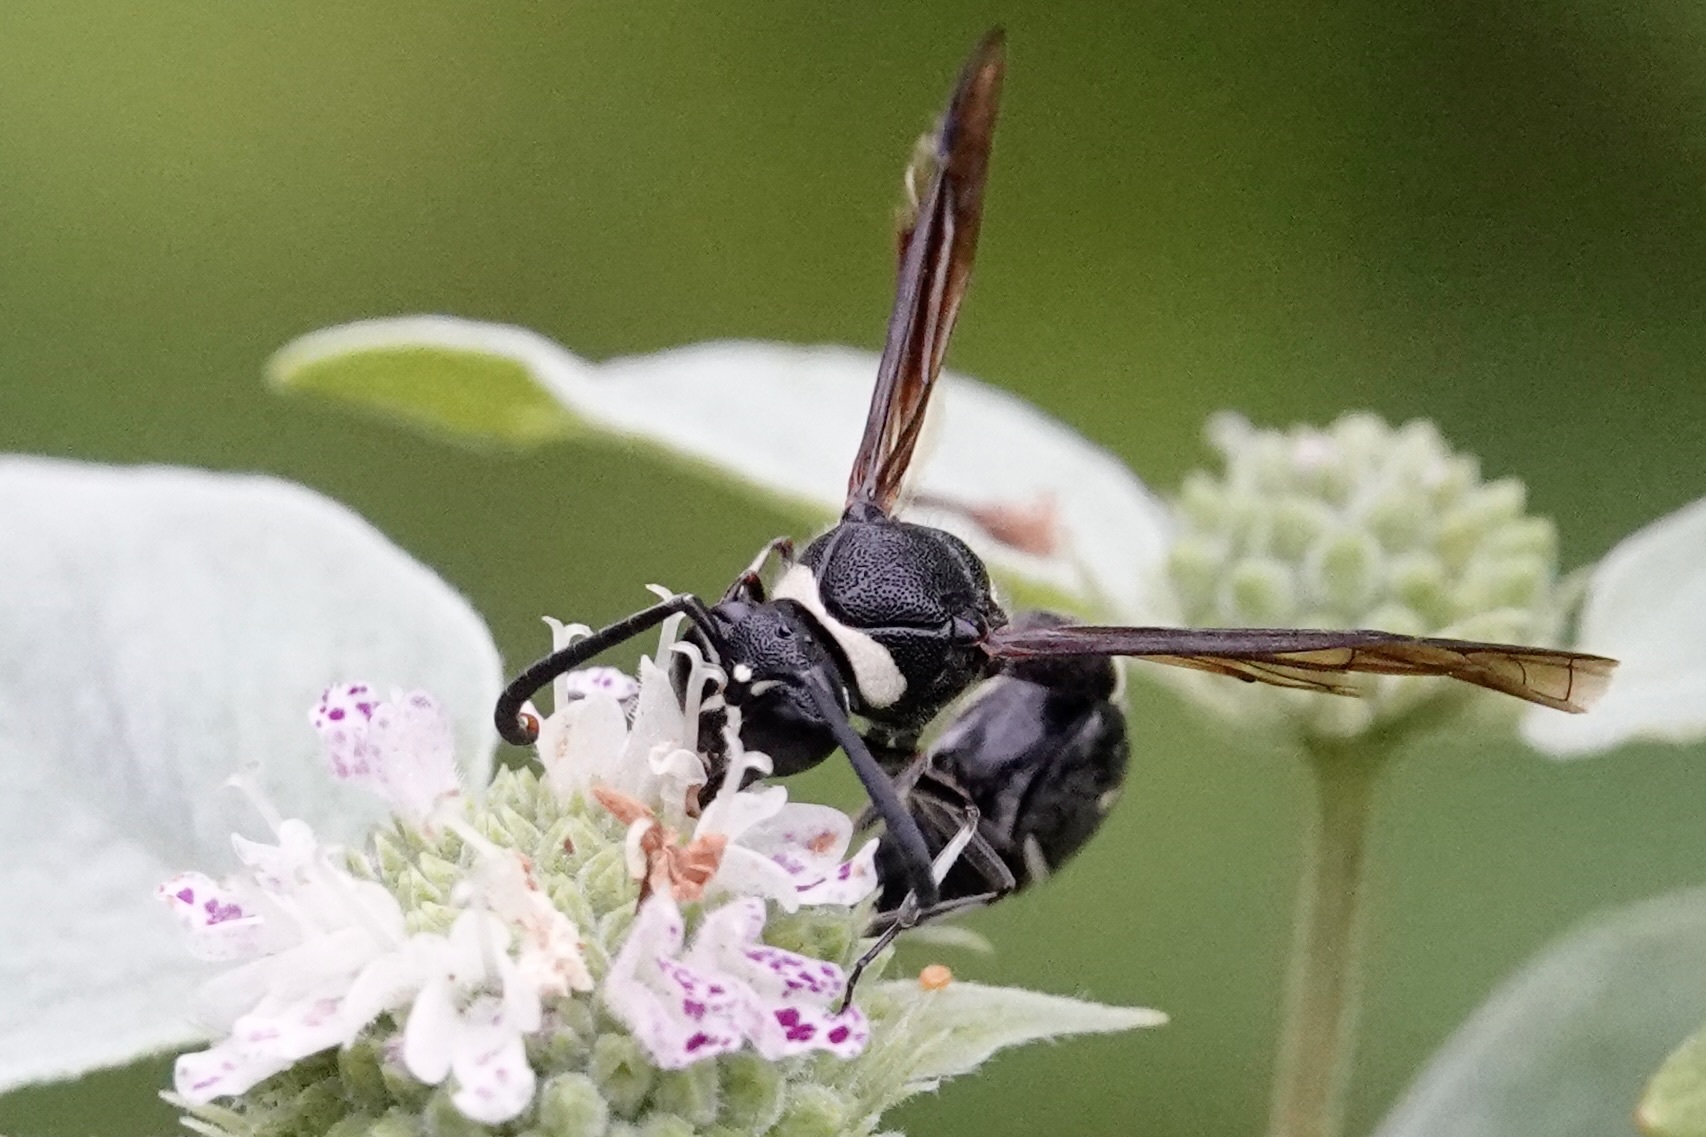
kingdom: Animalia
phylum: Arthropoda
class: Insecta
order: Hymenoptera
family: Vespidae
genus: Eumenes
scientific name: Eumenes fraternus
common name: Fraternal potter wasp
